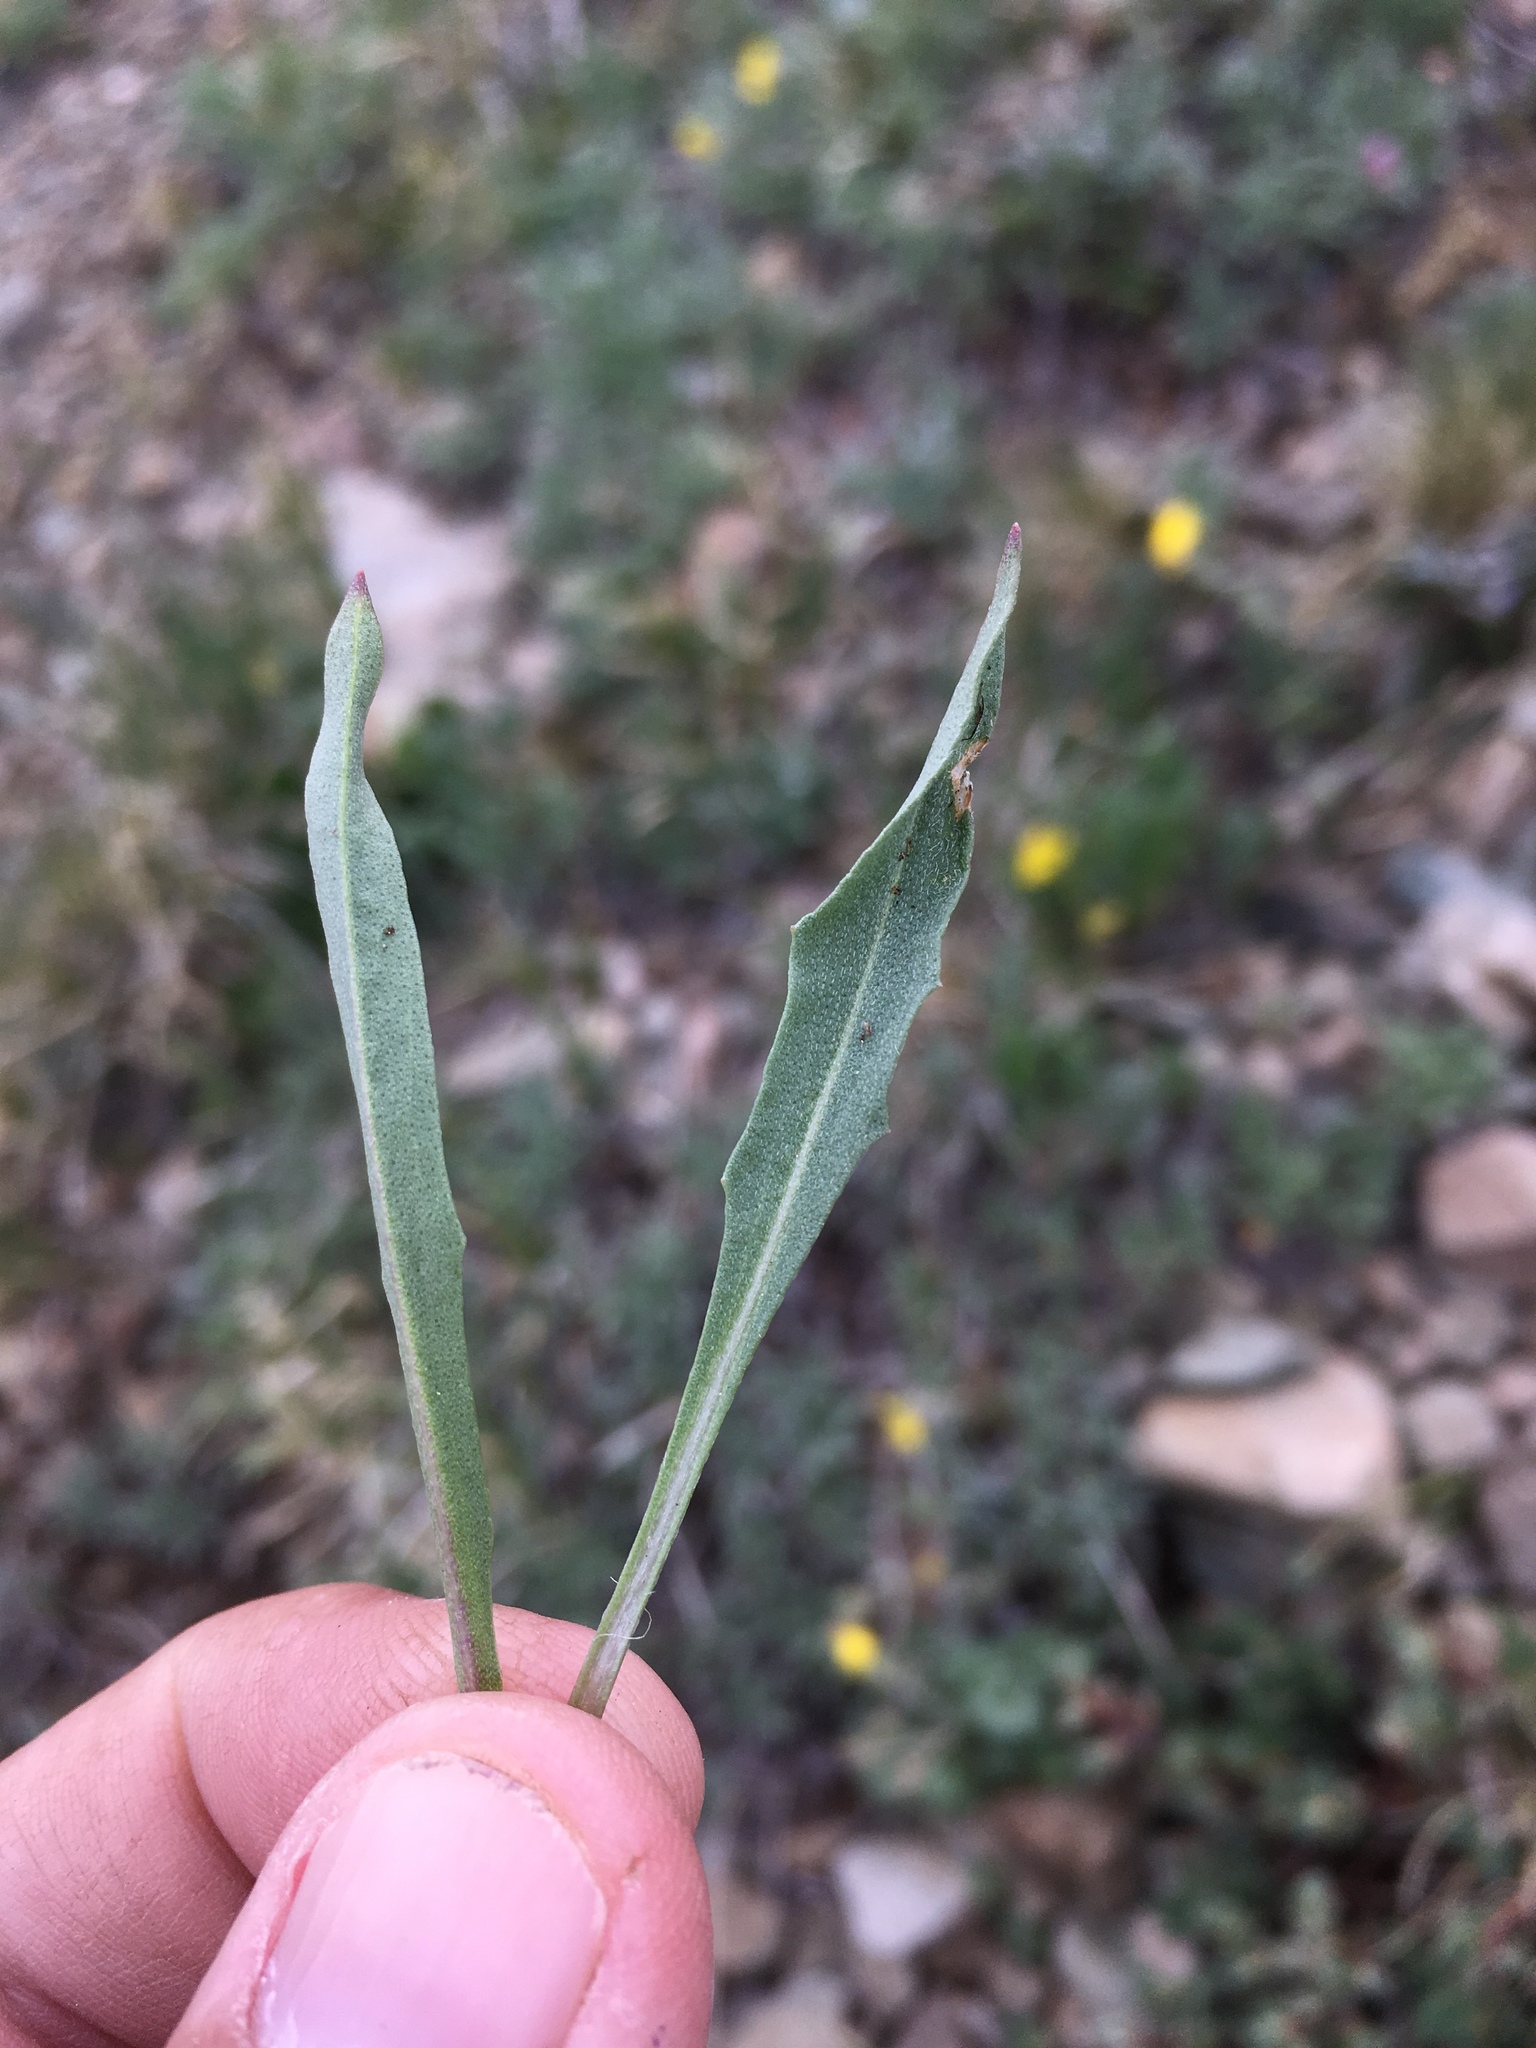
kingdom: Plantae
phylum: Tracheophyta
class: Magnoliopsida
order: Brassicales
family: Brassicaceae
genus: Erysimum
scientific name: Erysimum capitatum
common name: Western wallflower
